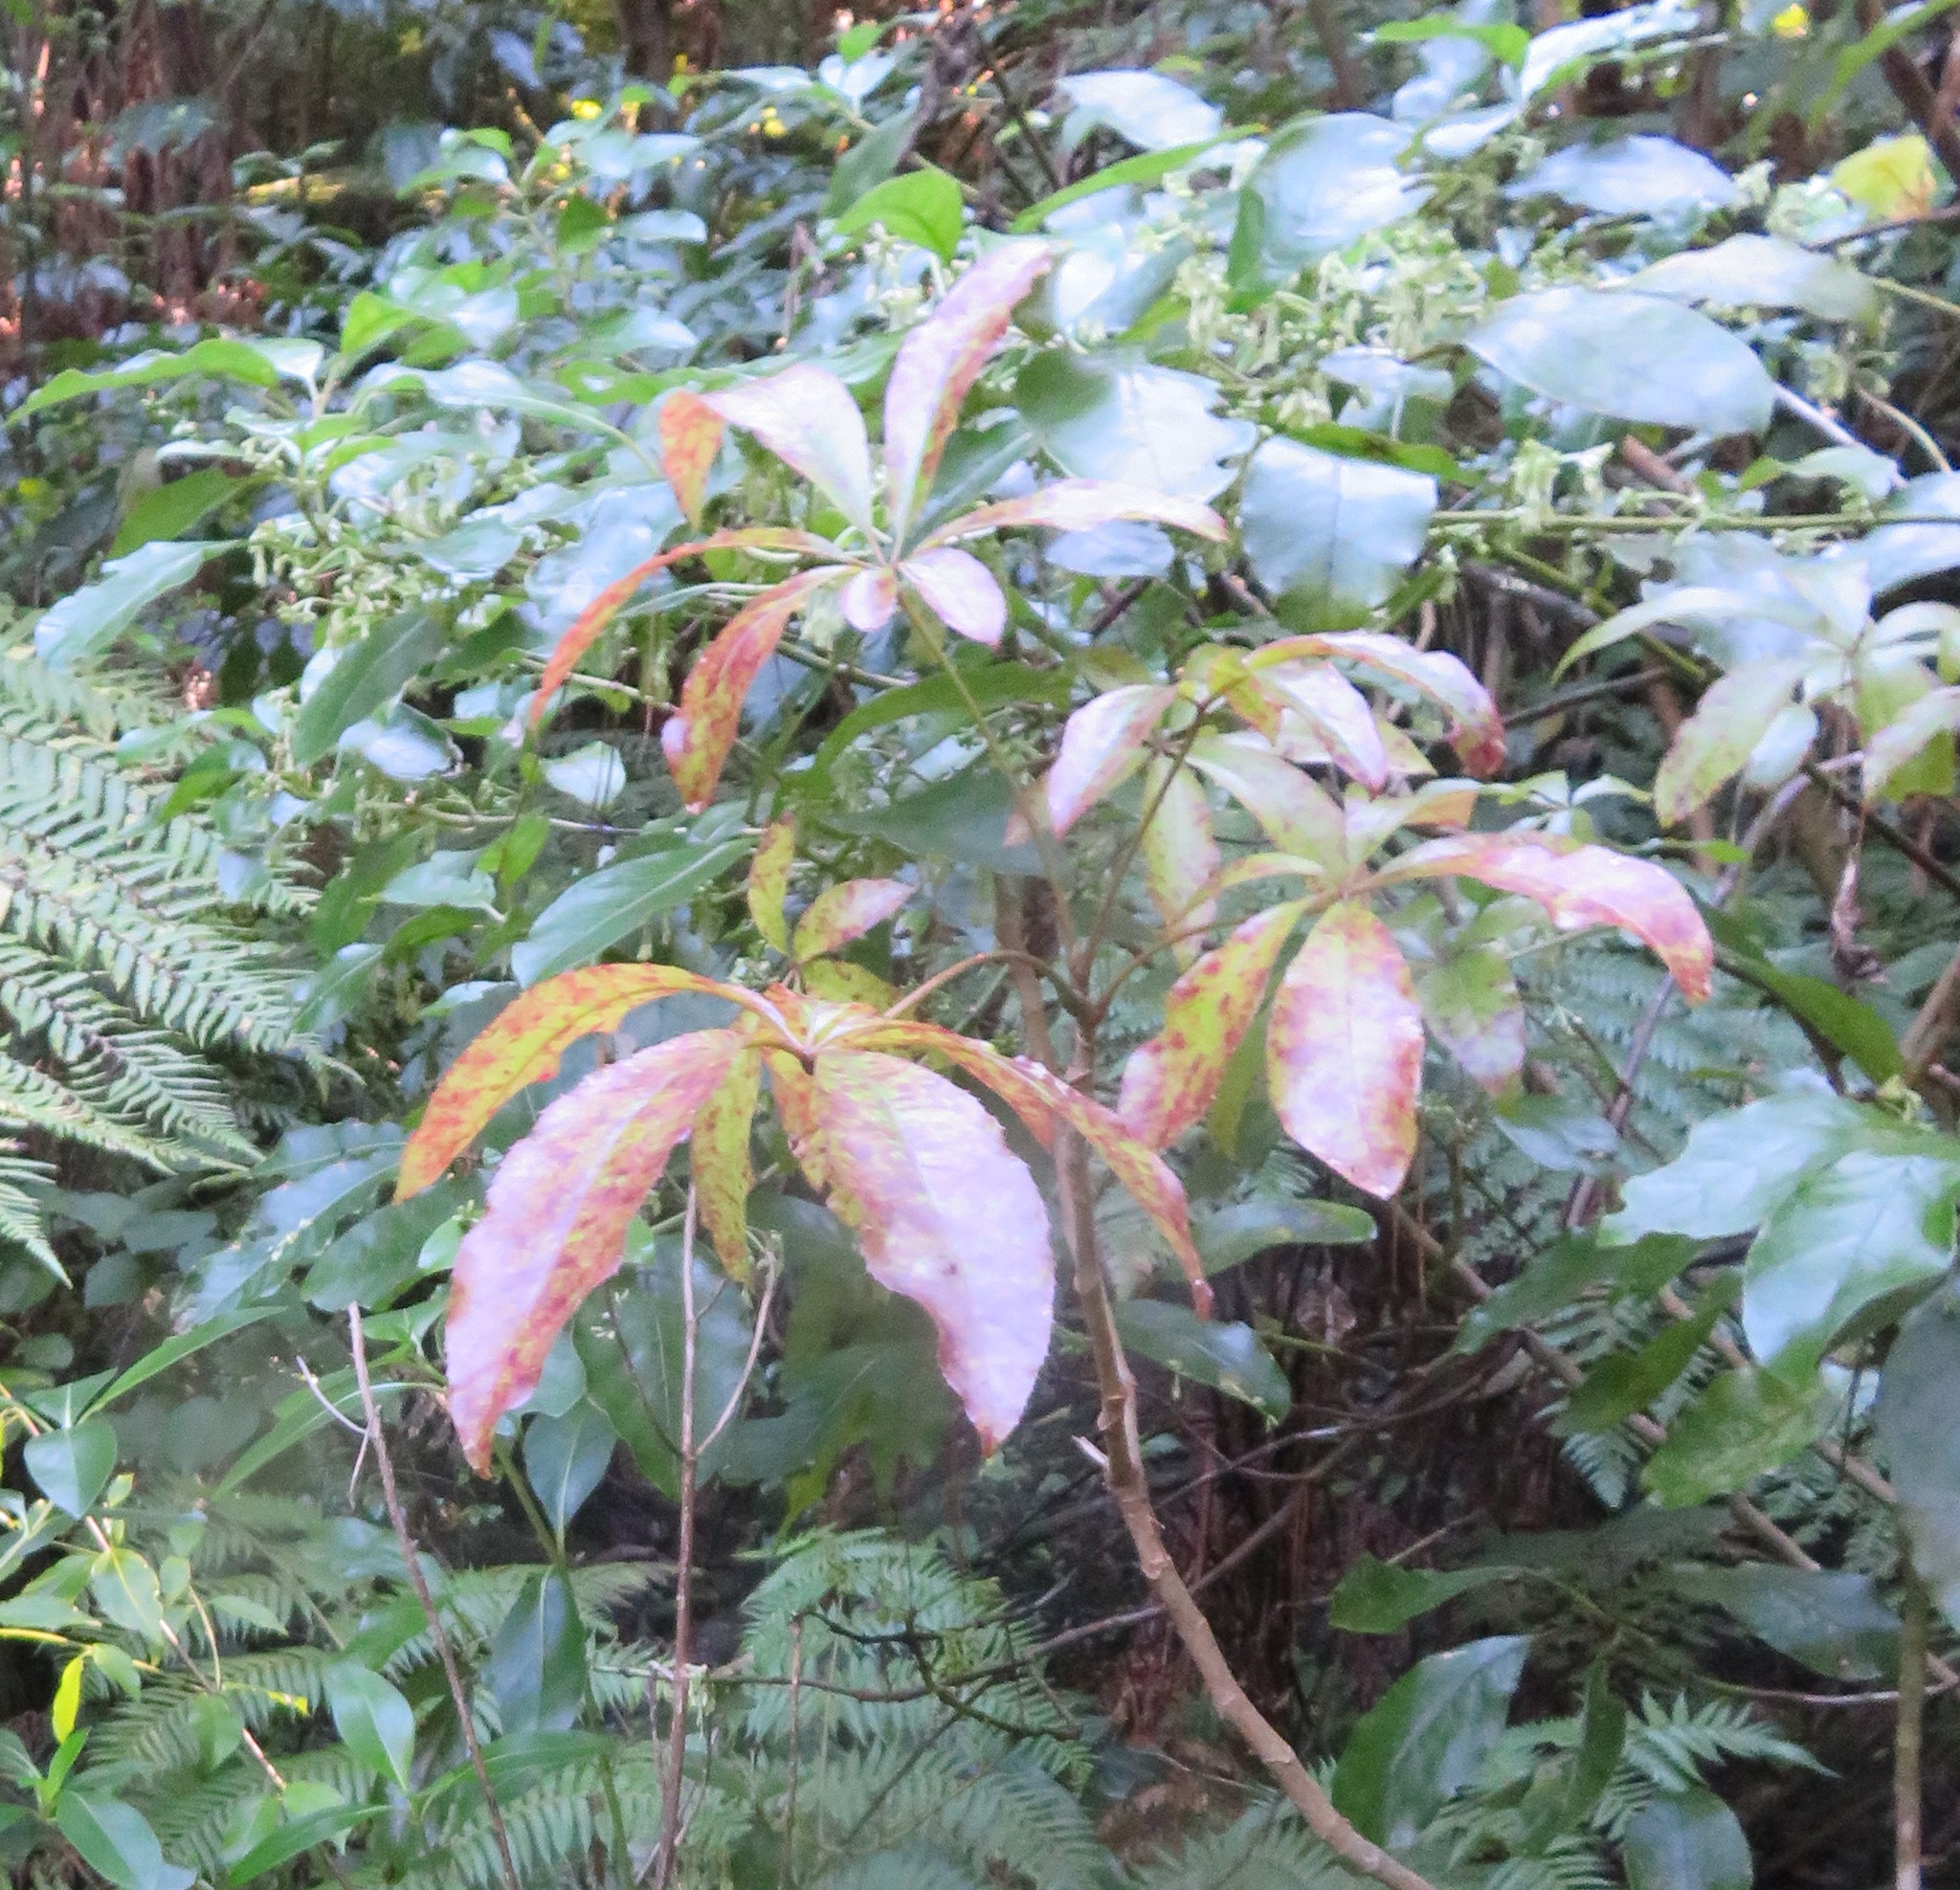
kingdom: Plantae
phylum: Tracheophyta
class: Magnoliopsida
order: Apiales
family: Araliaceae
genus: Schefflera
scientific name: Schefflera digitata
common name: Pate
